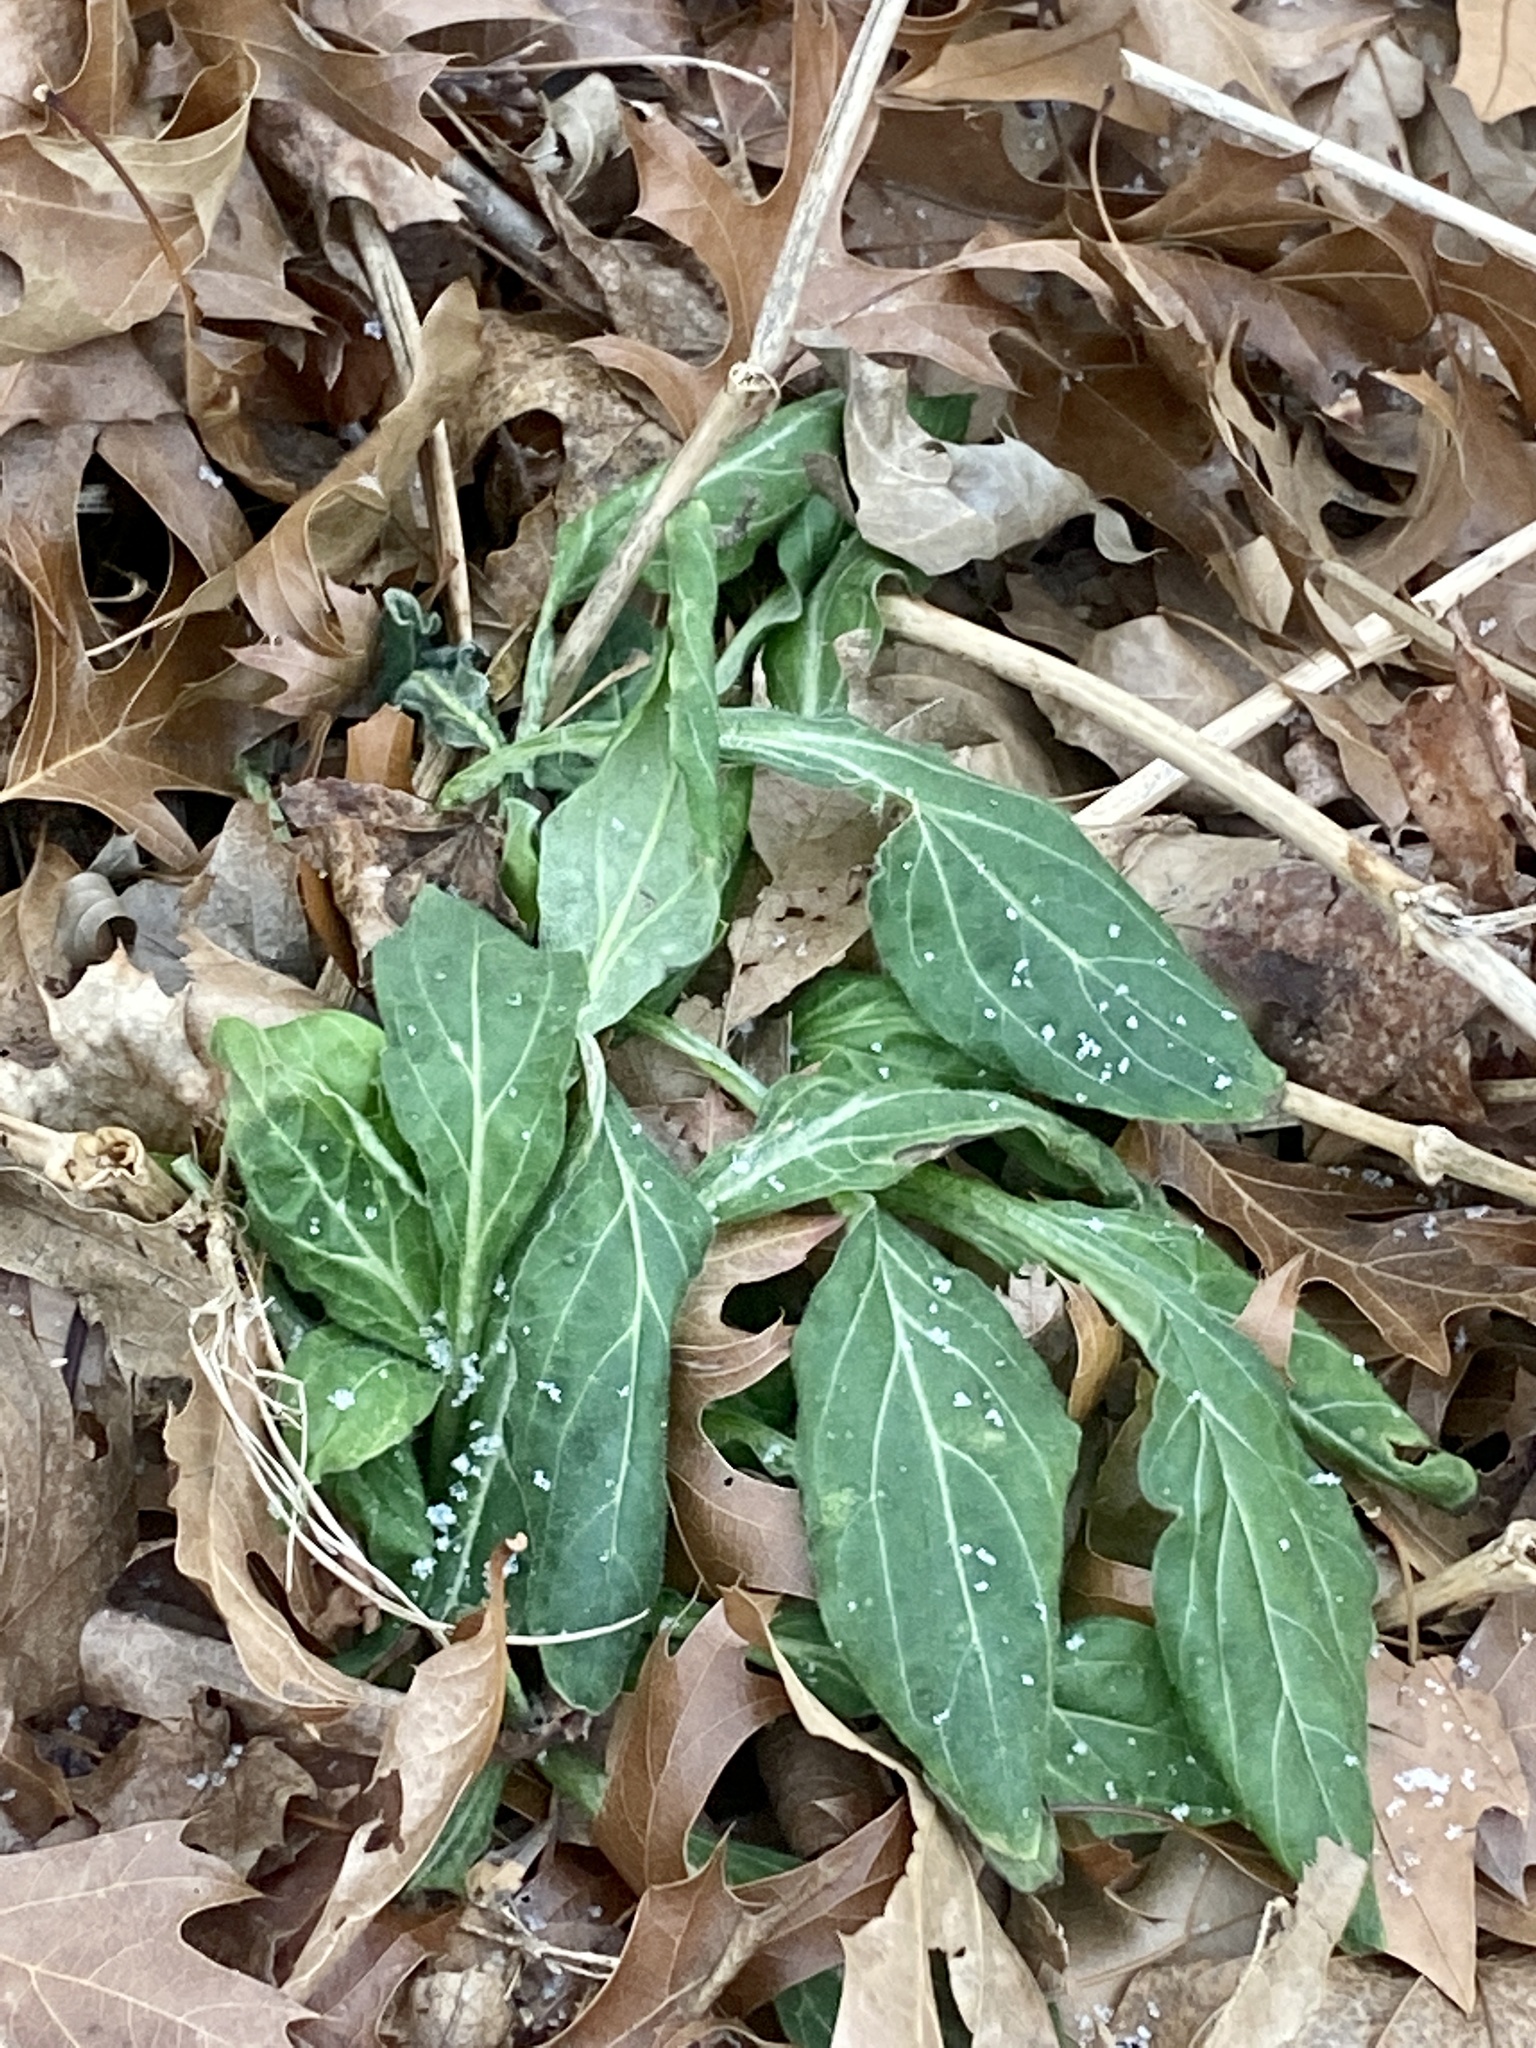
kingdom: Plantae
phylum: Tracheophyta
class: Magnoliopsida
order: Caryophyllales
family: Caryophyllaceae
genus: Silene
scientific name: Silene latifolia
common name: White campion
